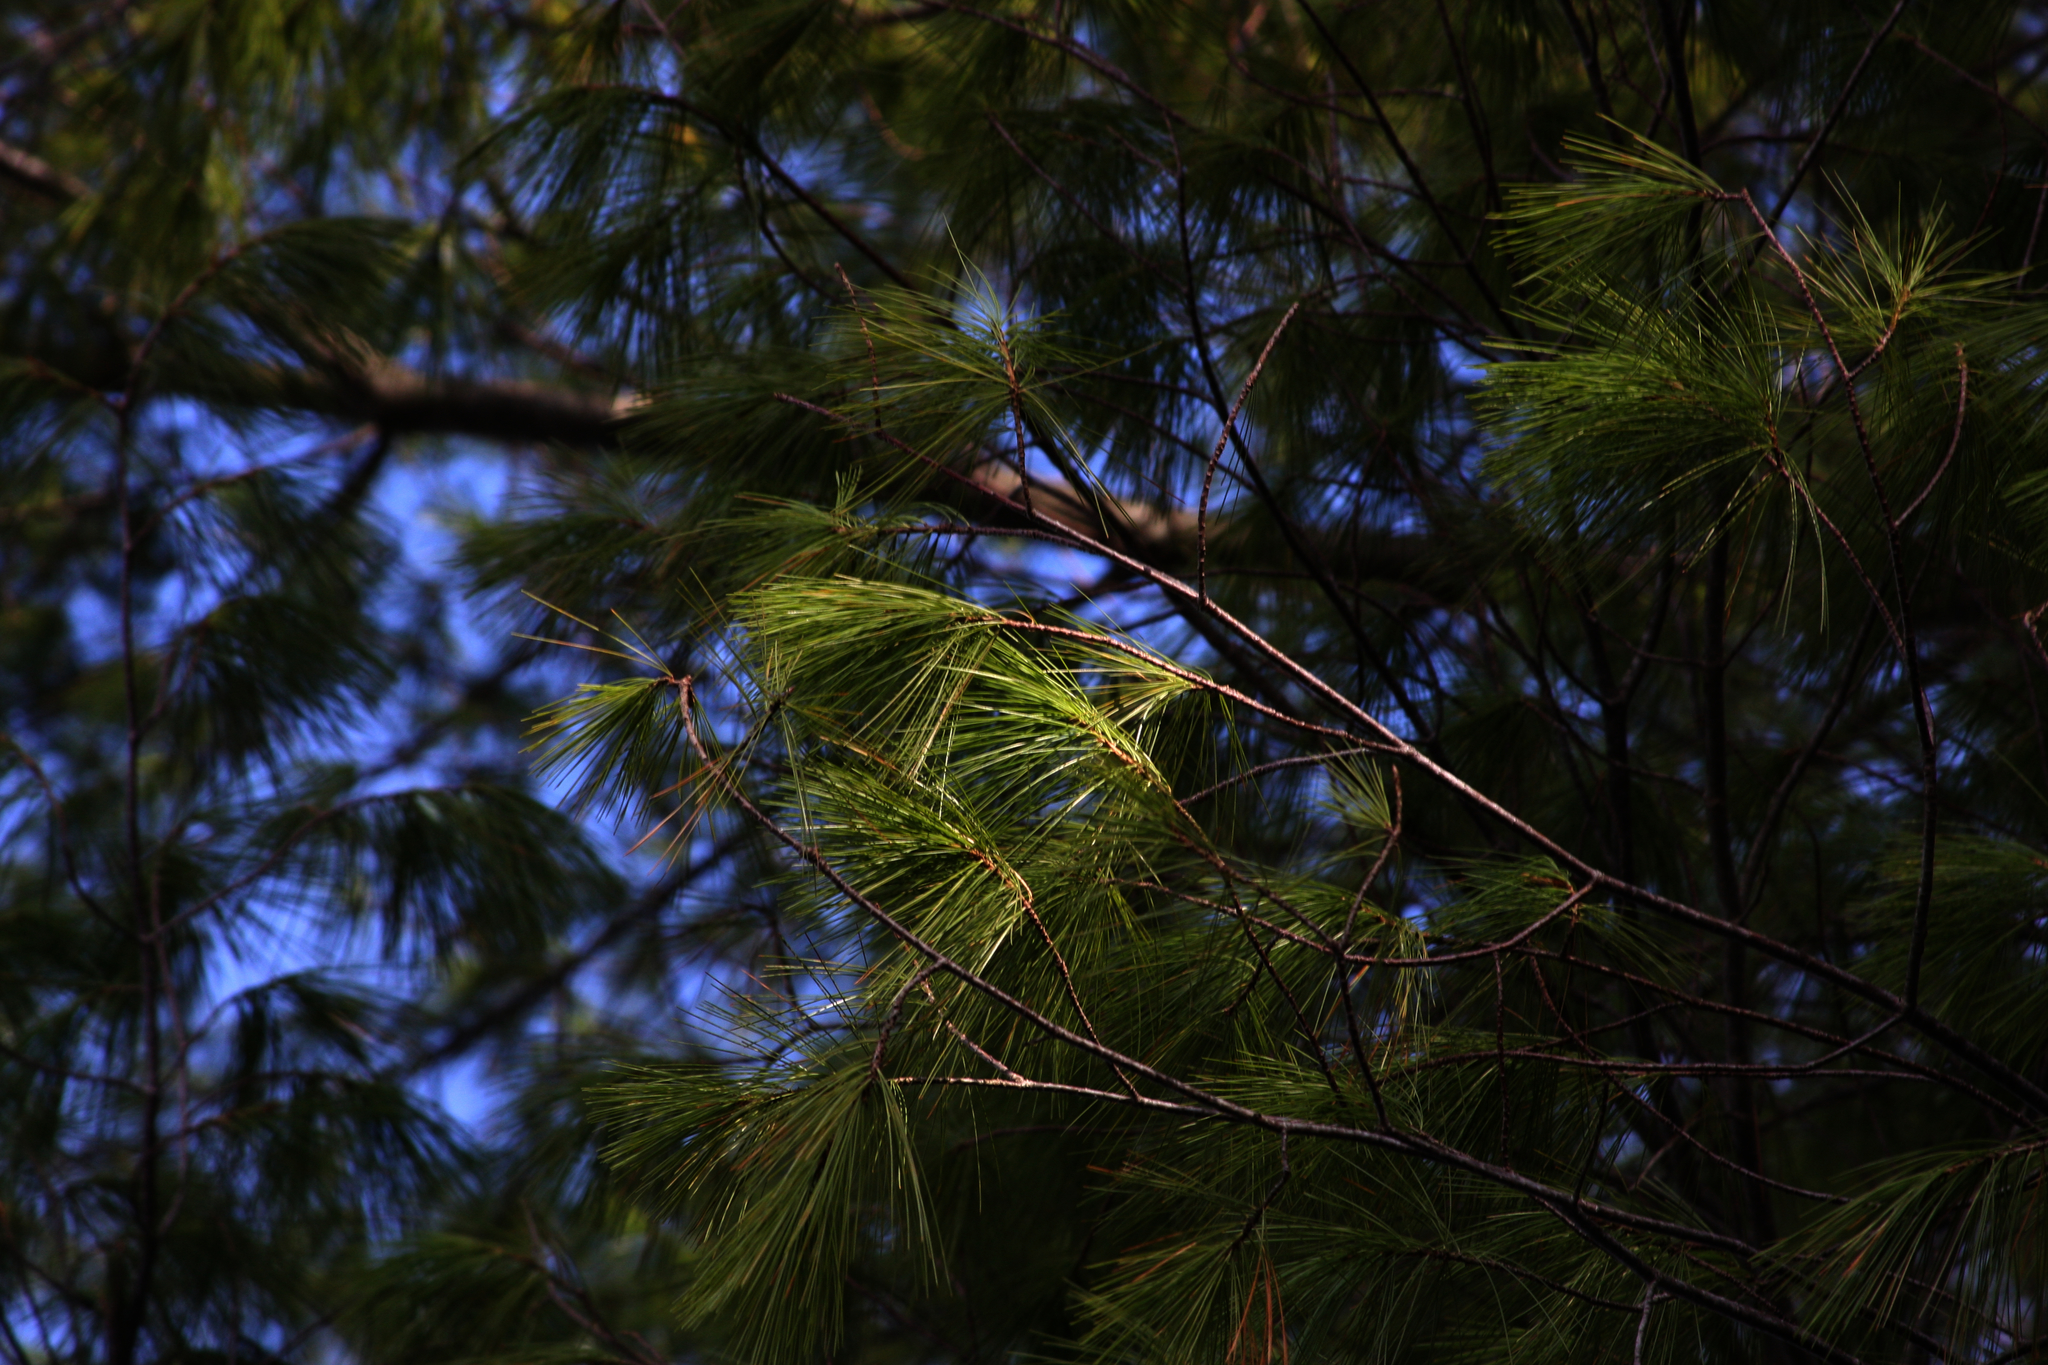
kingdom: Plantae
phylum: Tracheophyta
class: Pinopsida
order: Pinales
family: Pinaceae
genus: Pinus
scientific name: Pinus strobus
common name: Weymouth pine
